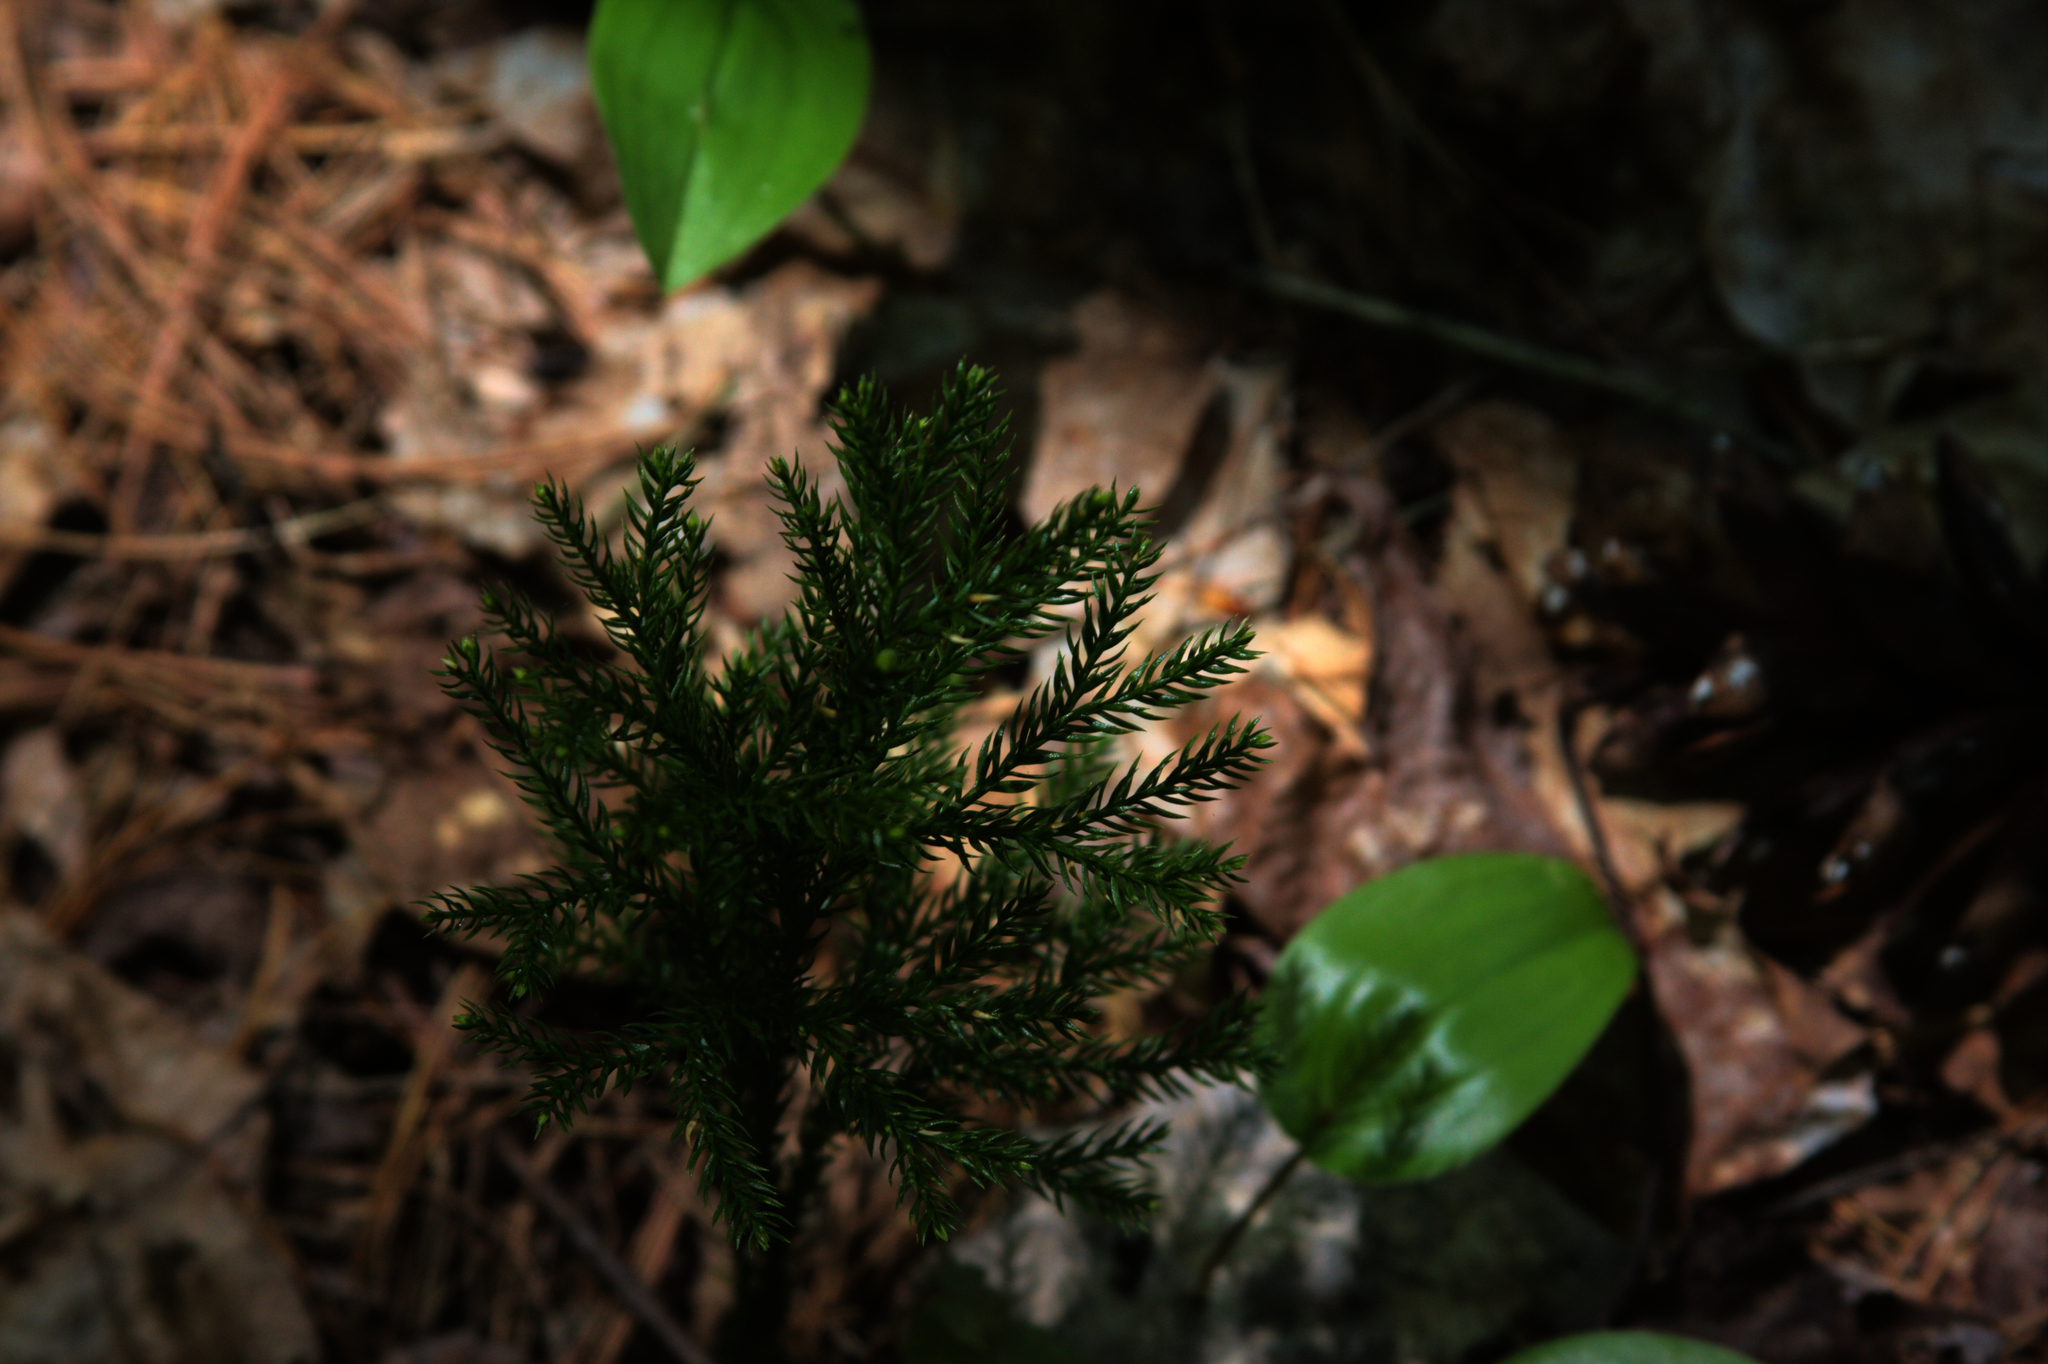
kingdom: Plantae
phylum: Tracheophyta
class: Liliopsida
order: Asparagales
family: Asparagaceae
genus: Maianthemum
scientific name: Maianthemum canadense
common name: False lily-of-the-valley
